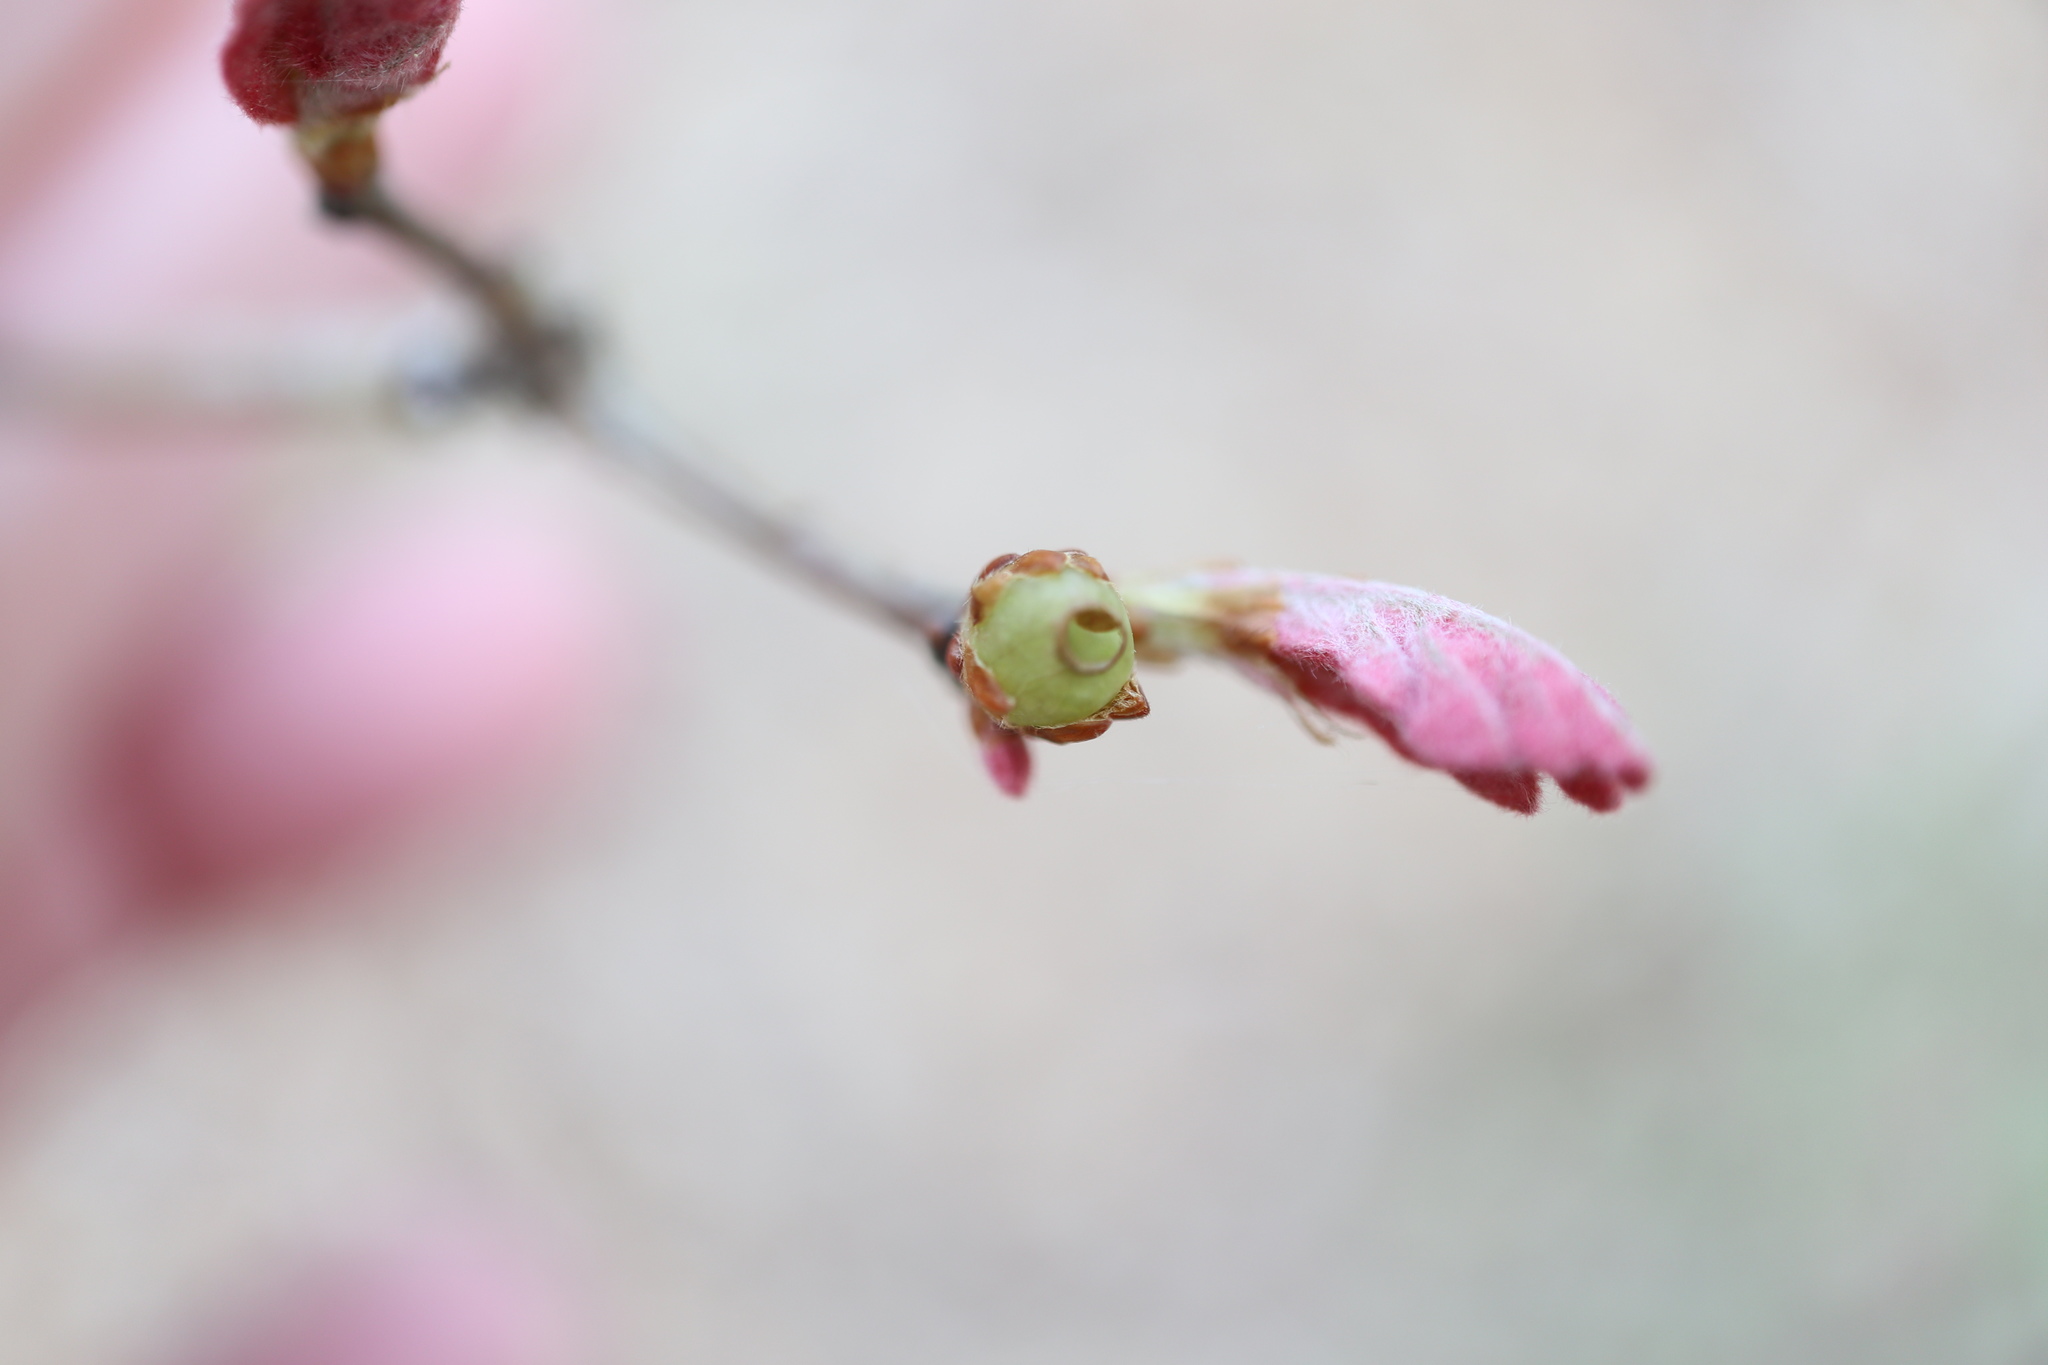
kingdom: Animalia
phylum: Arthropoda
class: Insecta
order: Hymenoptera
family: Cynipidae
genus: Neuroterus
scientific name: Neuroterus
